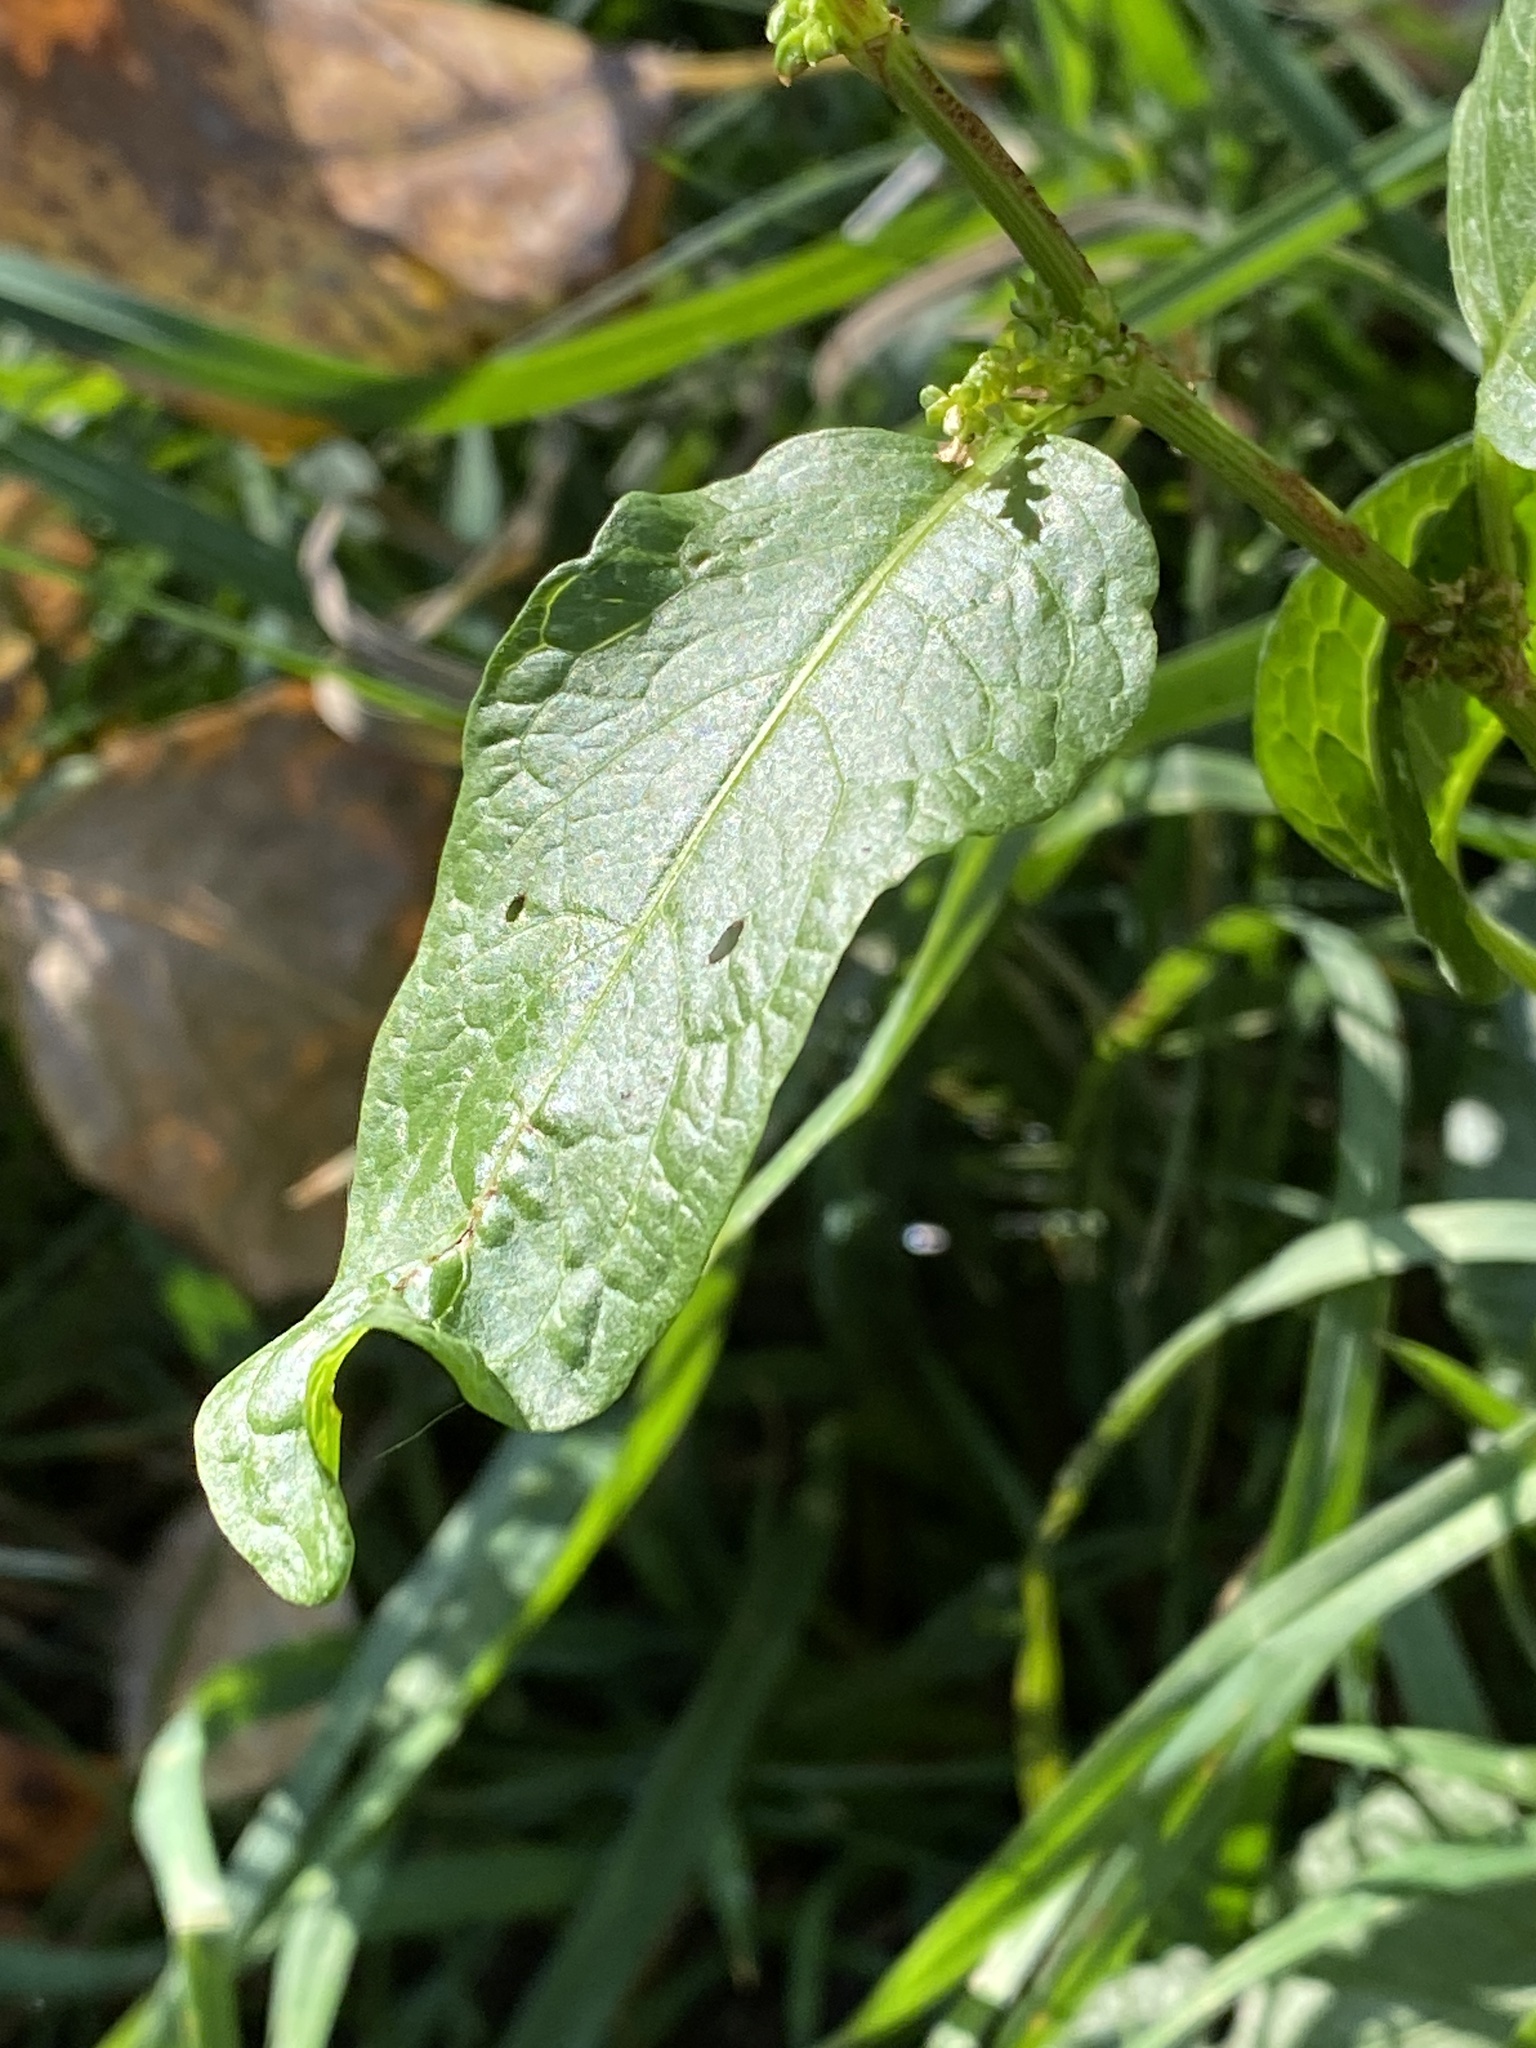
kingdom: Plantae
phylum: Tracheophyta
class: Magnoliopsida
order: Caryophyllales
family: Polygonaceae
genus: Rumex
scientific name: Rumex obtusifolius
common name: Bitter dock
